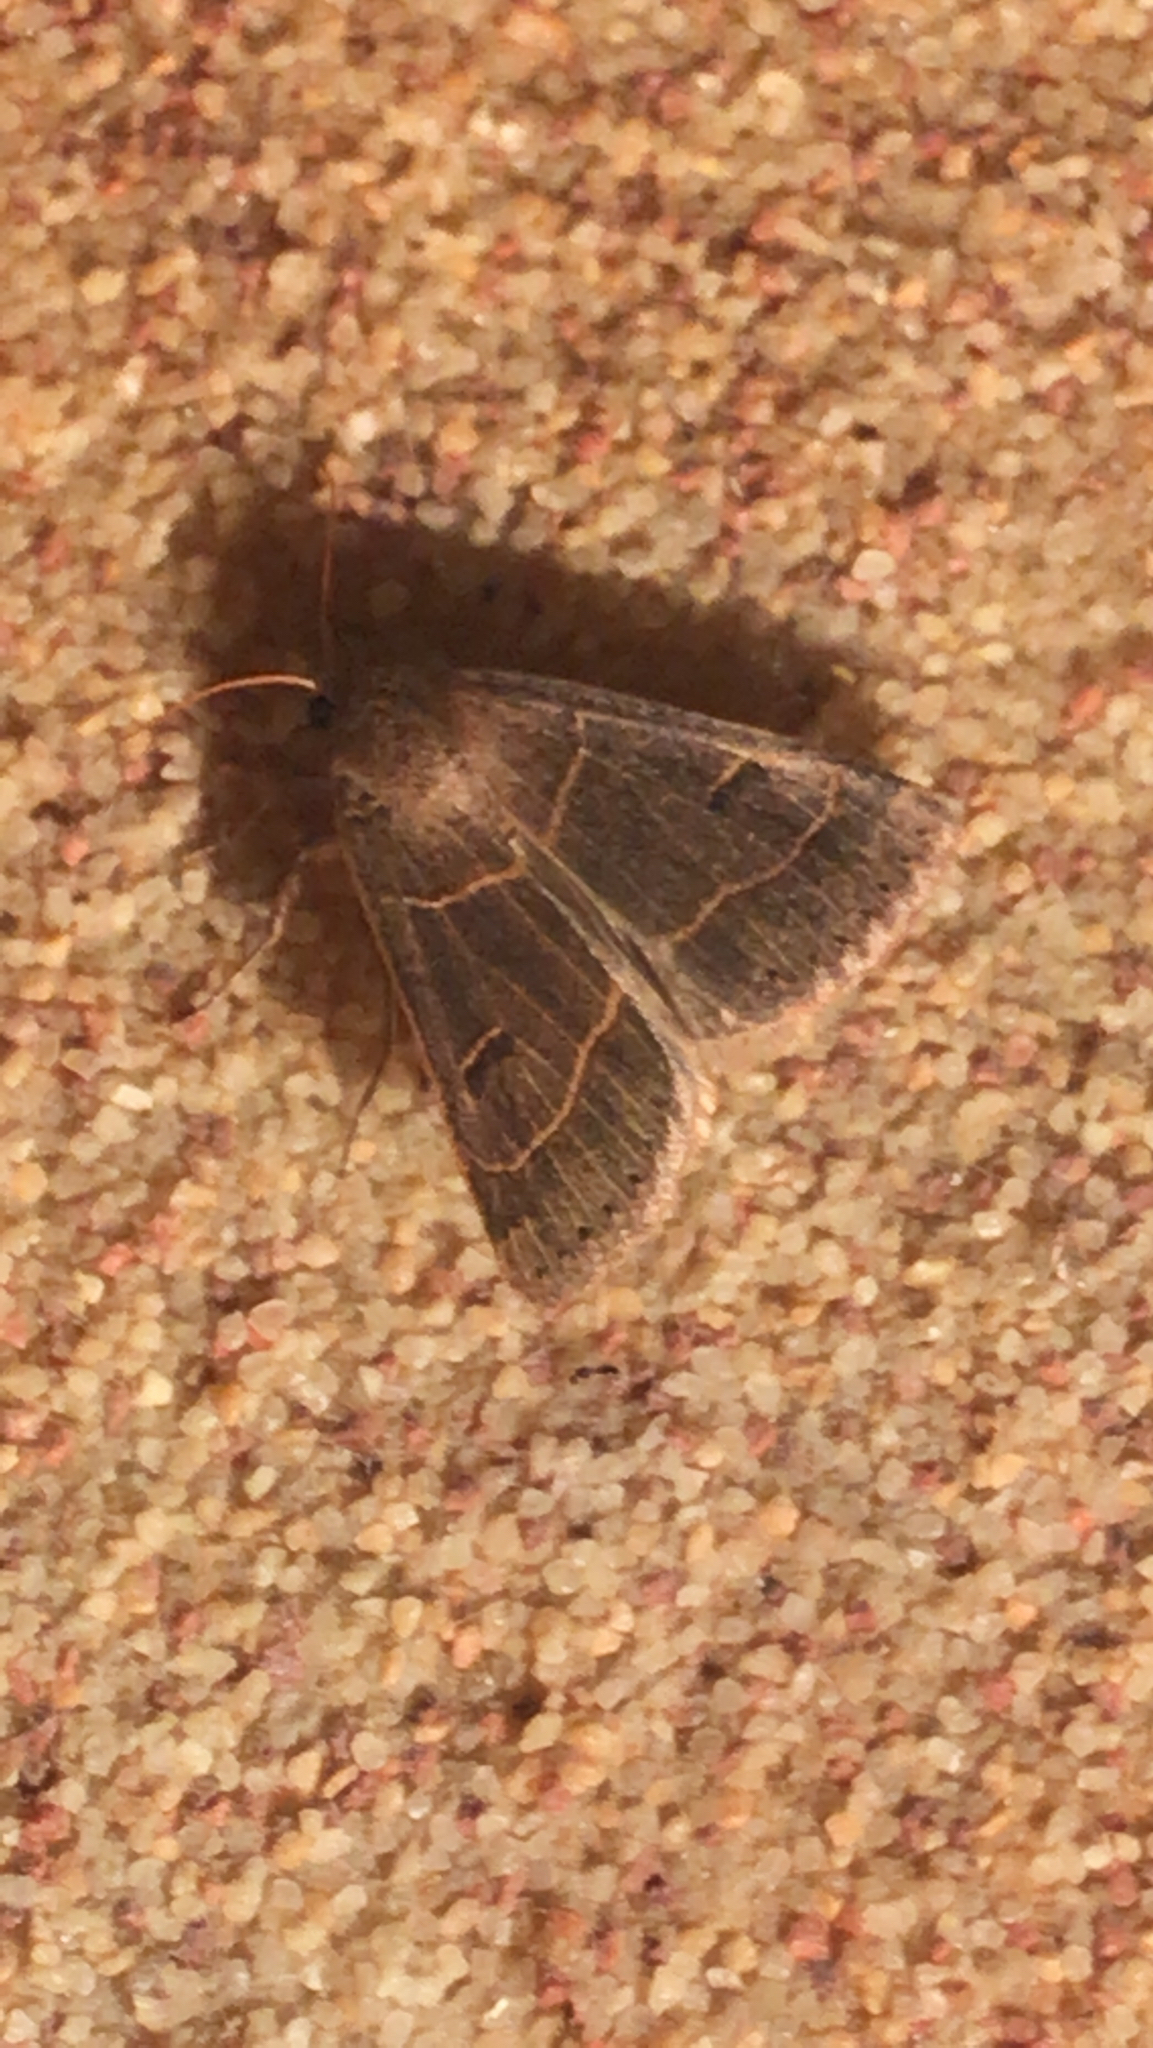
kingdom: Animalia
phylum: Arthropoda
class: Insecta
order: Lepidoptera
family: Erebidae
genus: Phoberia
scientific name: Phoberia atomaris
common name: Common oak moth
